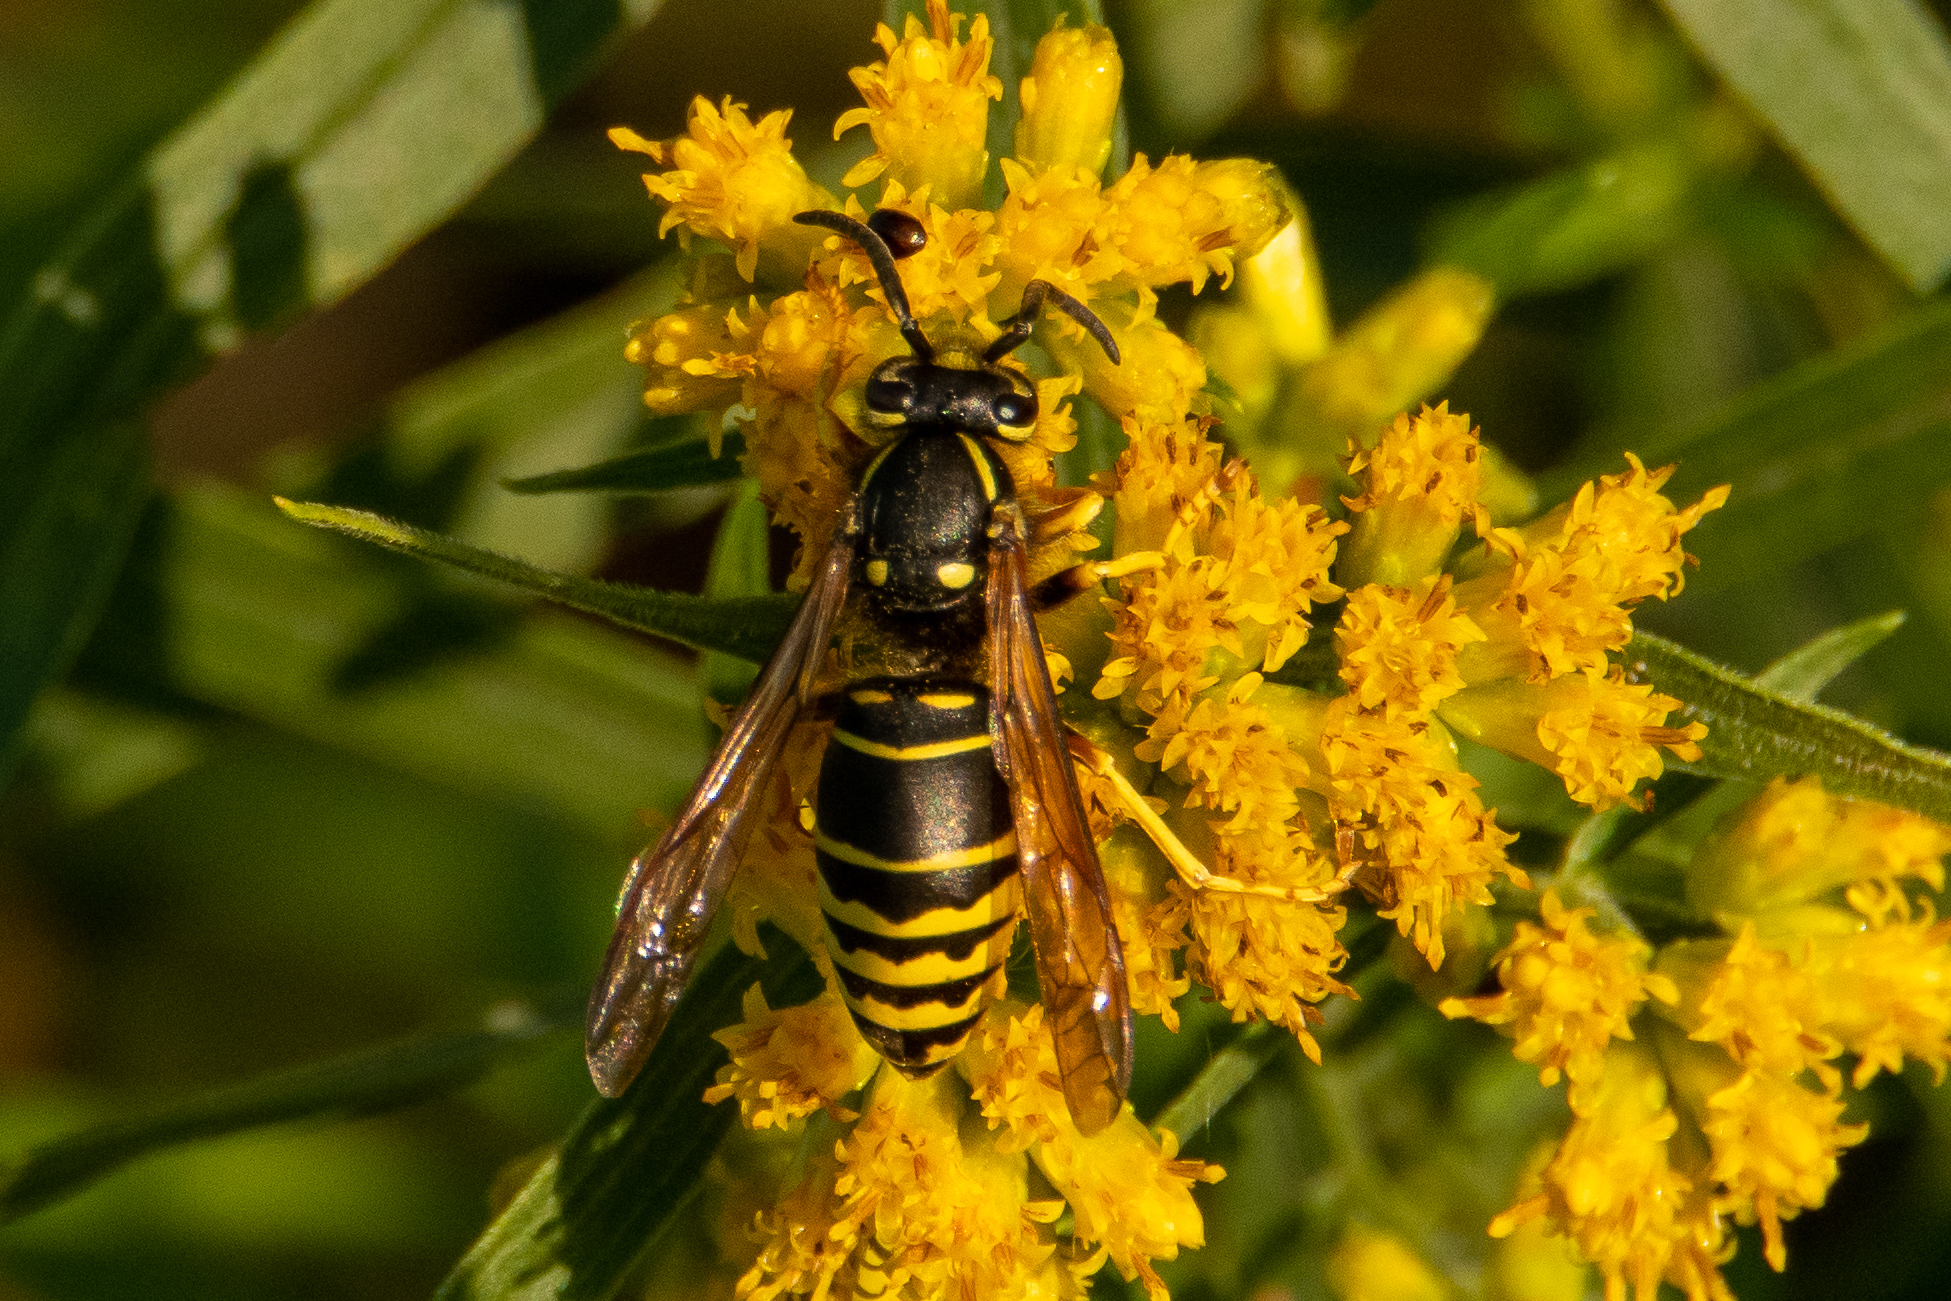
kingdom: Animalia
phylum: Arthropoda
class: Insecta
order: Hymenoptera
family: Vespidae
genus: Vespula
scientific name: Vespula vidua
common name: Widow yellowjacket
